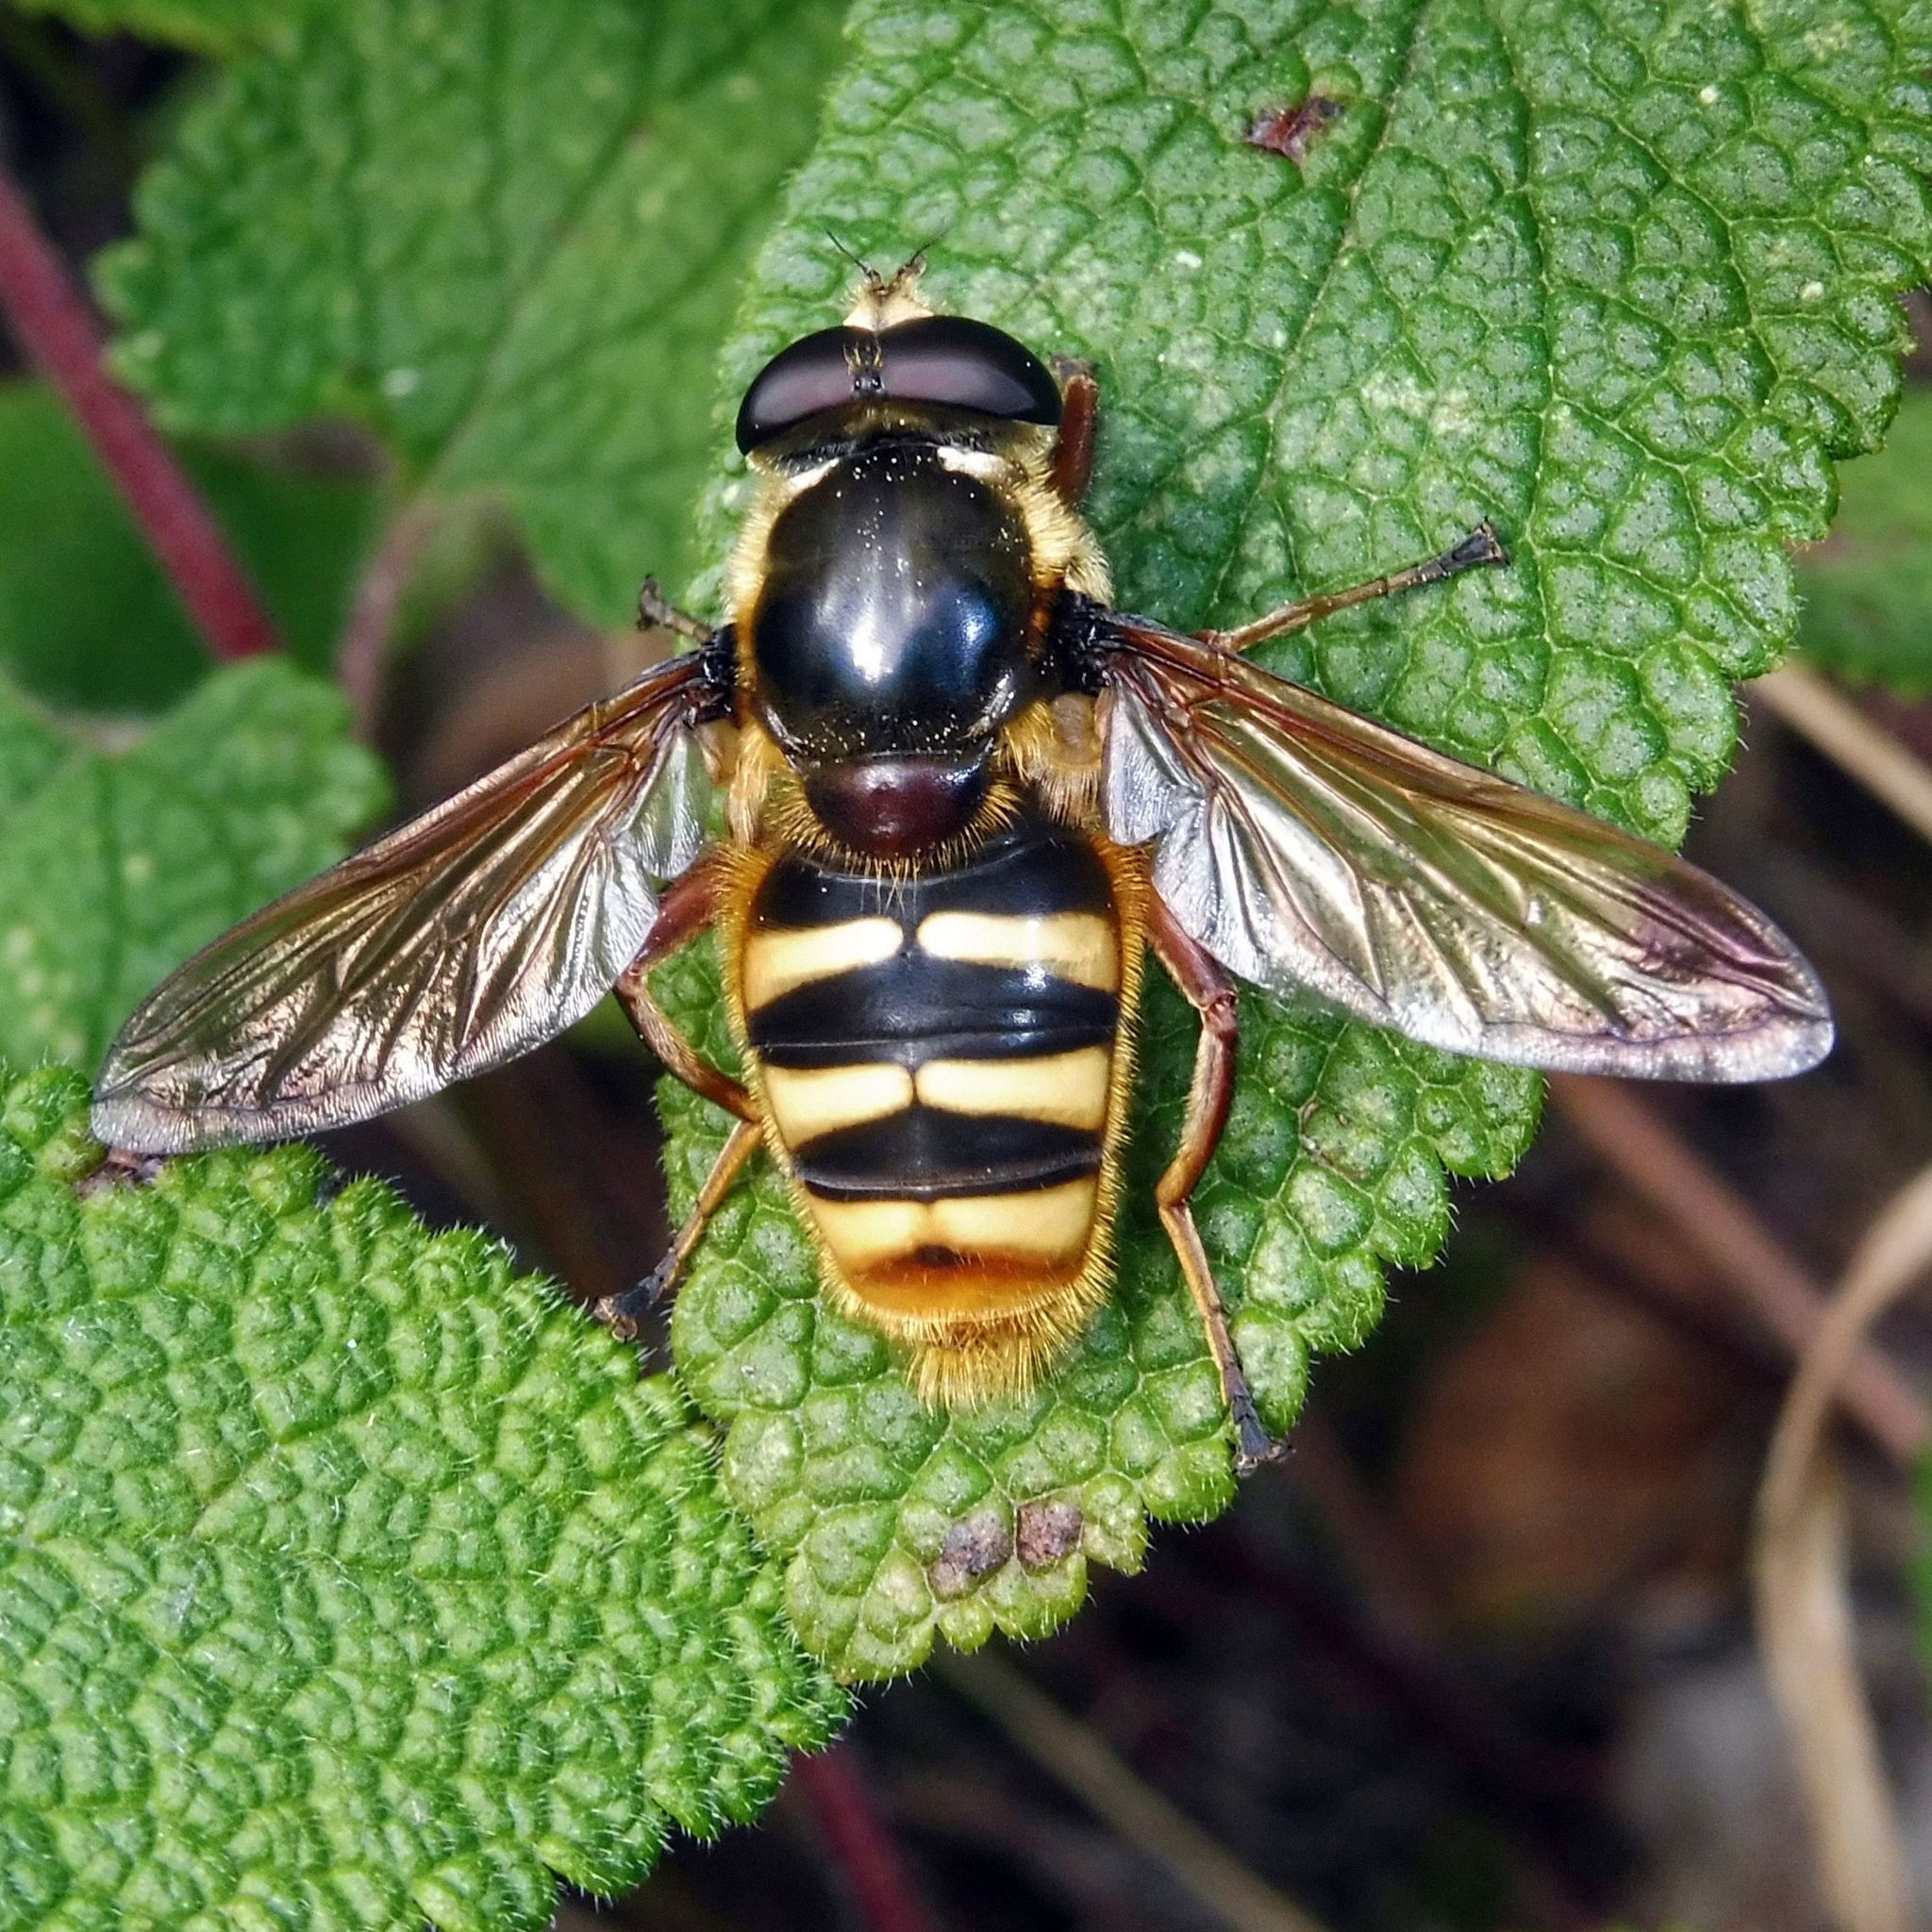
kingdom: Animalia
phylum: Arthropoda
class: Insecta
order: Diptera
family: Syrphidae
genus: Sericomyia
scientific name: Sericomyia silentis
